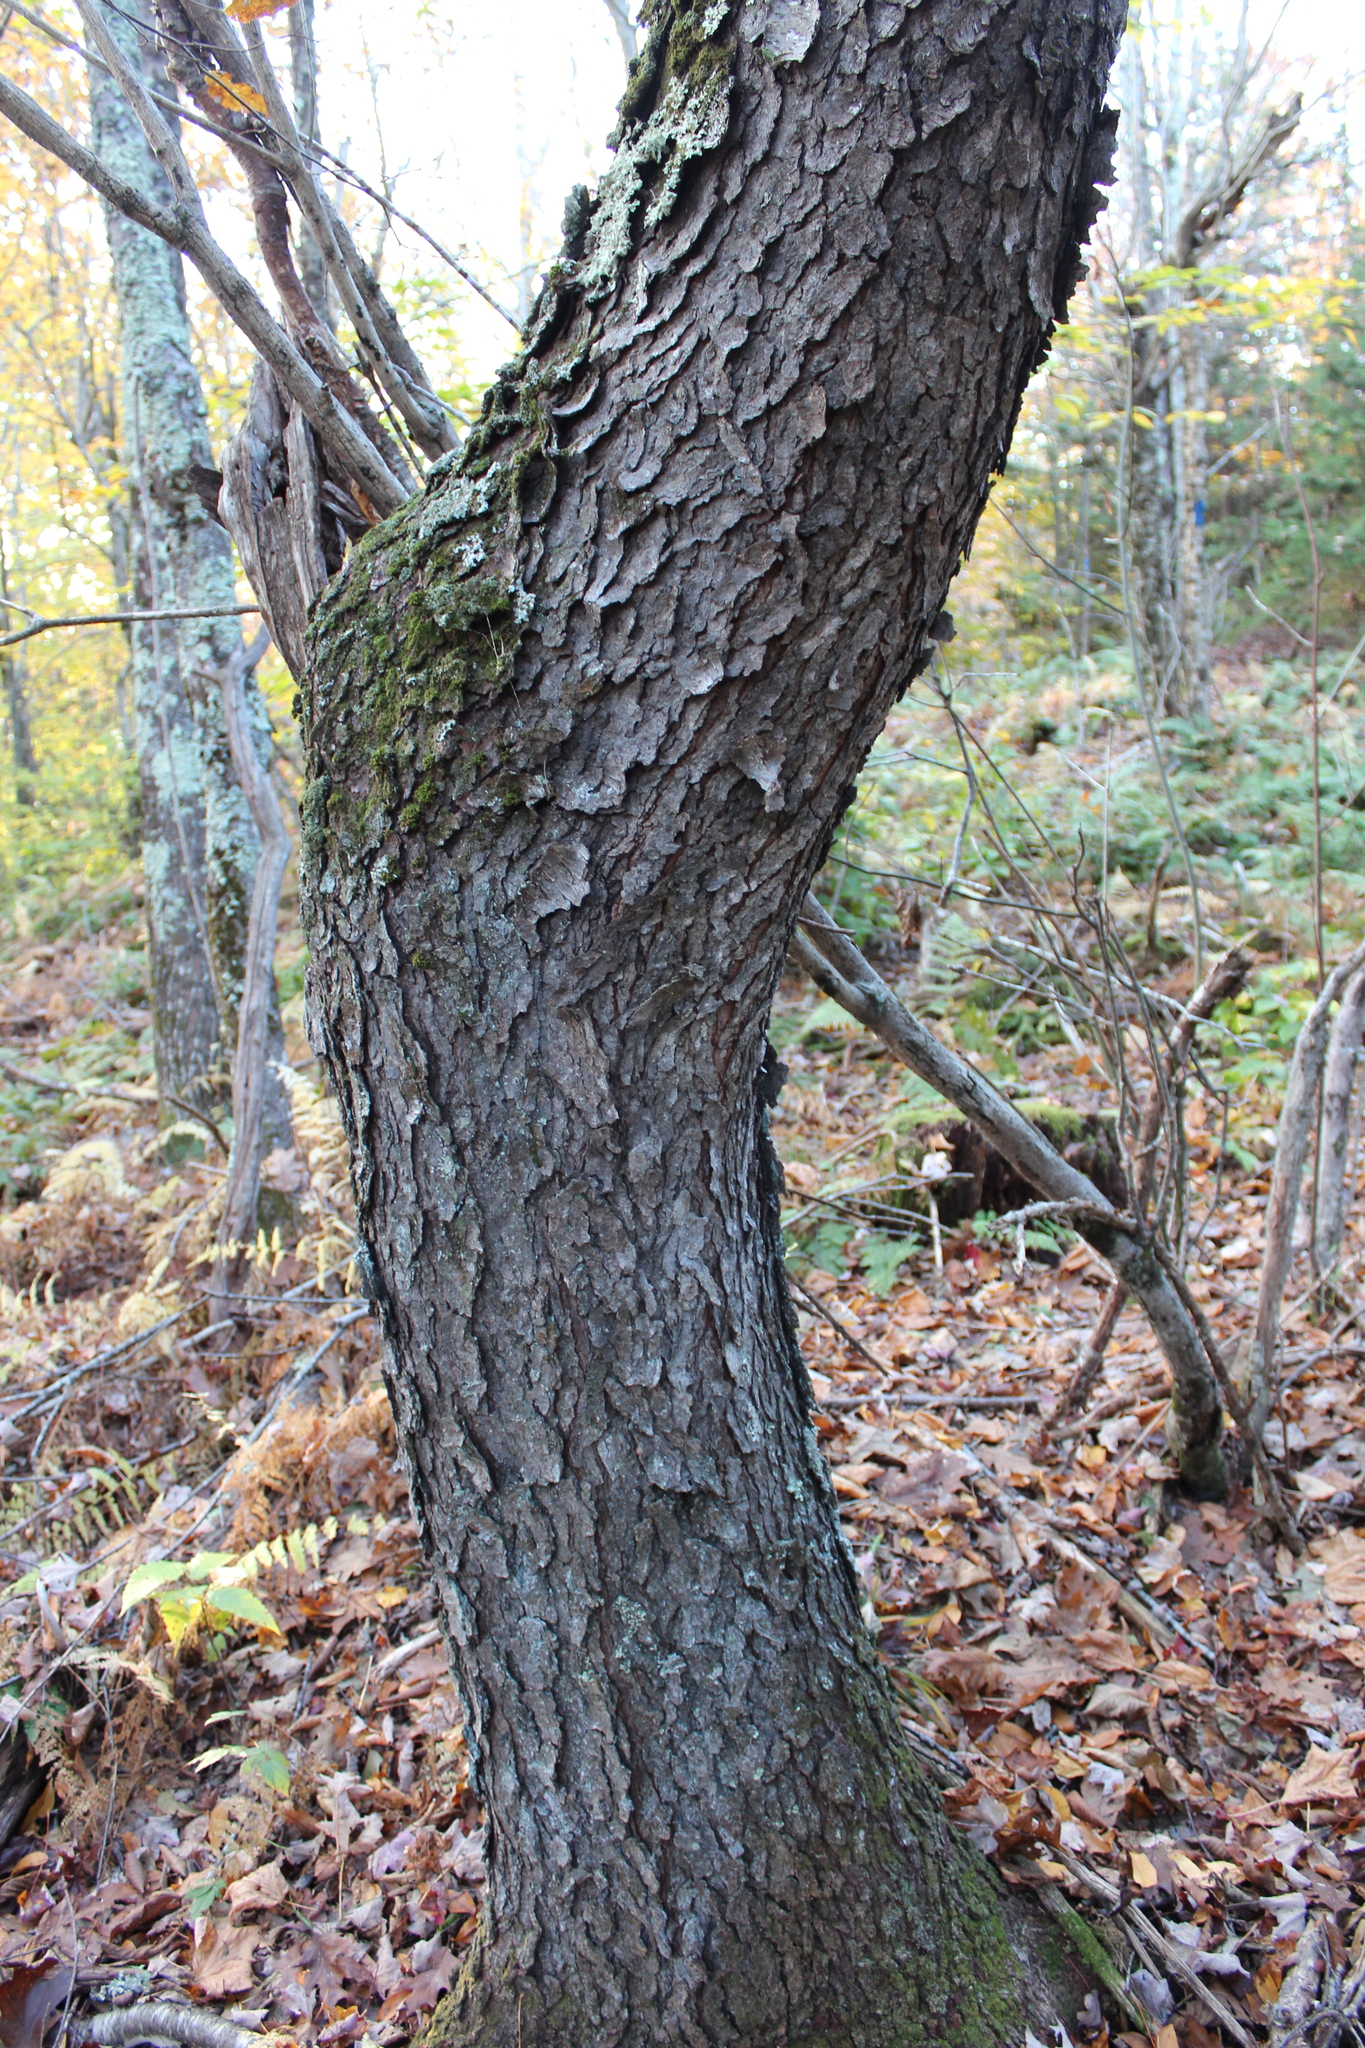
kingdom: Plantae
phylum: Tracheophyta
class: Magnoliopsida
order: Rosales
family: Rosaceae
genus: Prunus
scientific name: Prunus serotina
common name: Black cherry
